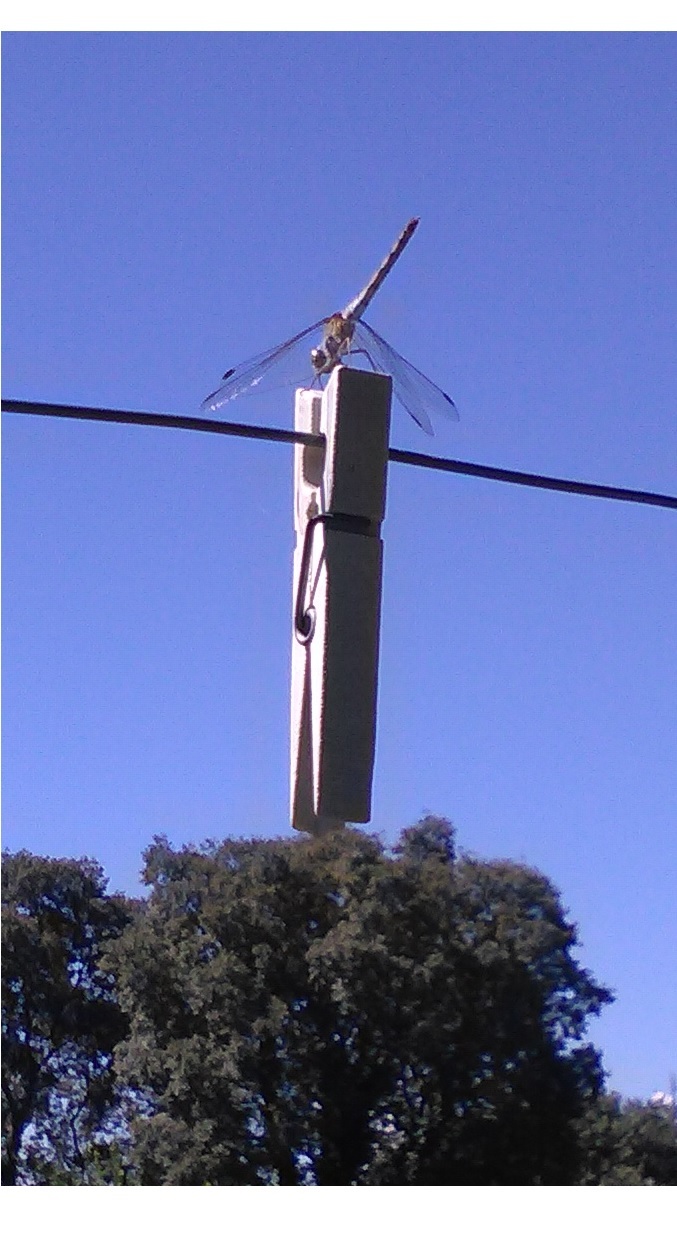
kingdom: Animalia
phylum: Arthropoda
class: Insecta
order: Odonata
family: Libellulidae
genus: Sympetrum
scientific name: Sympetrum
